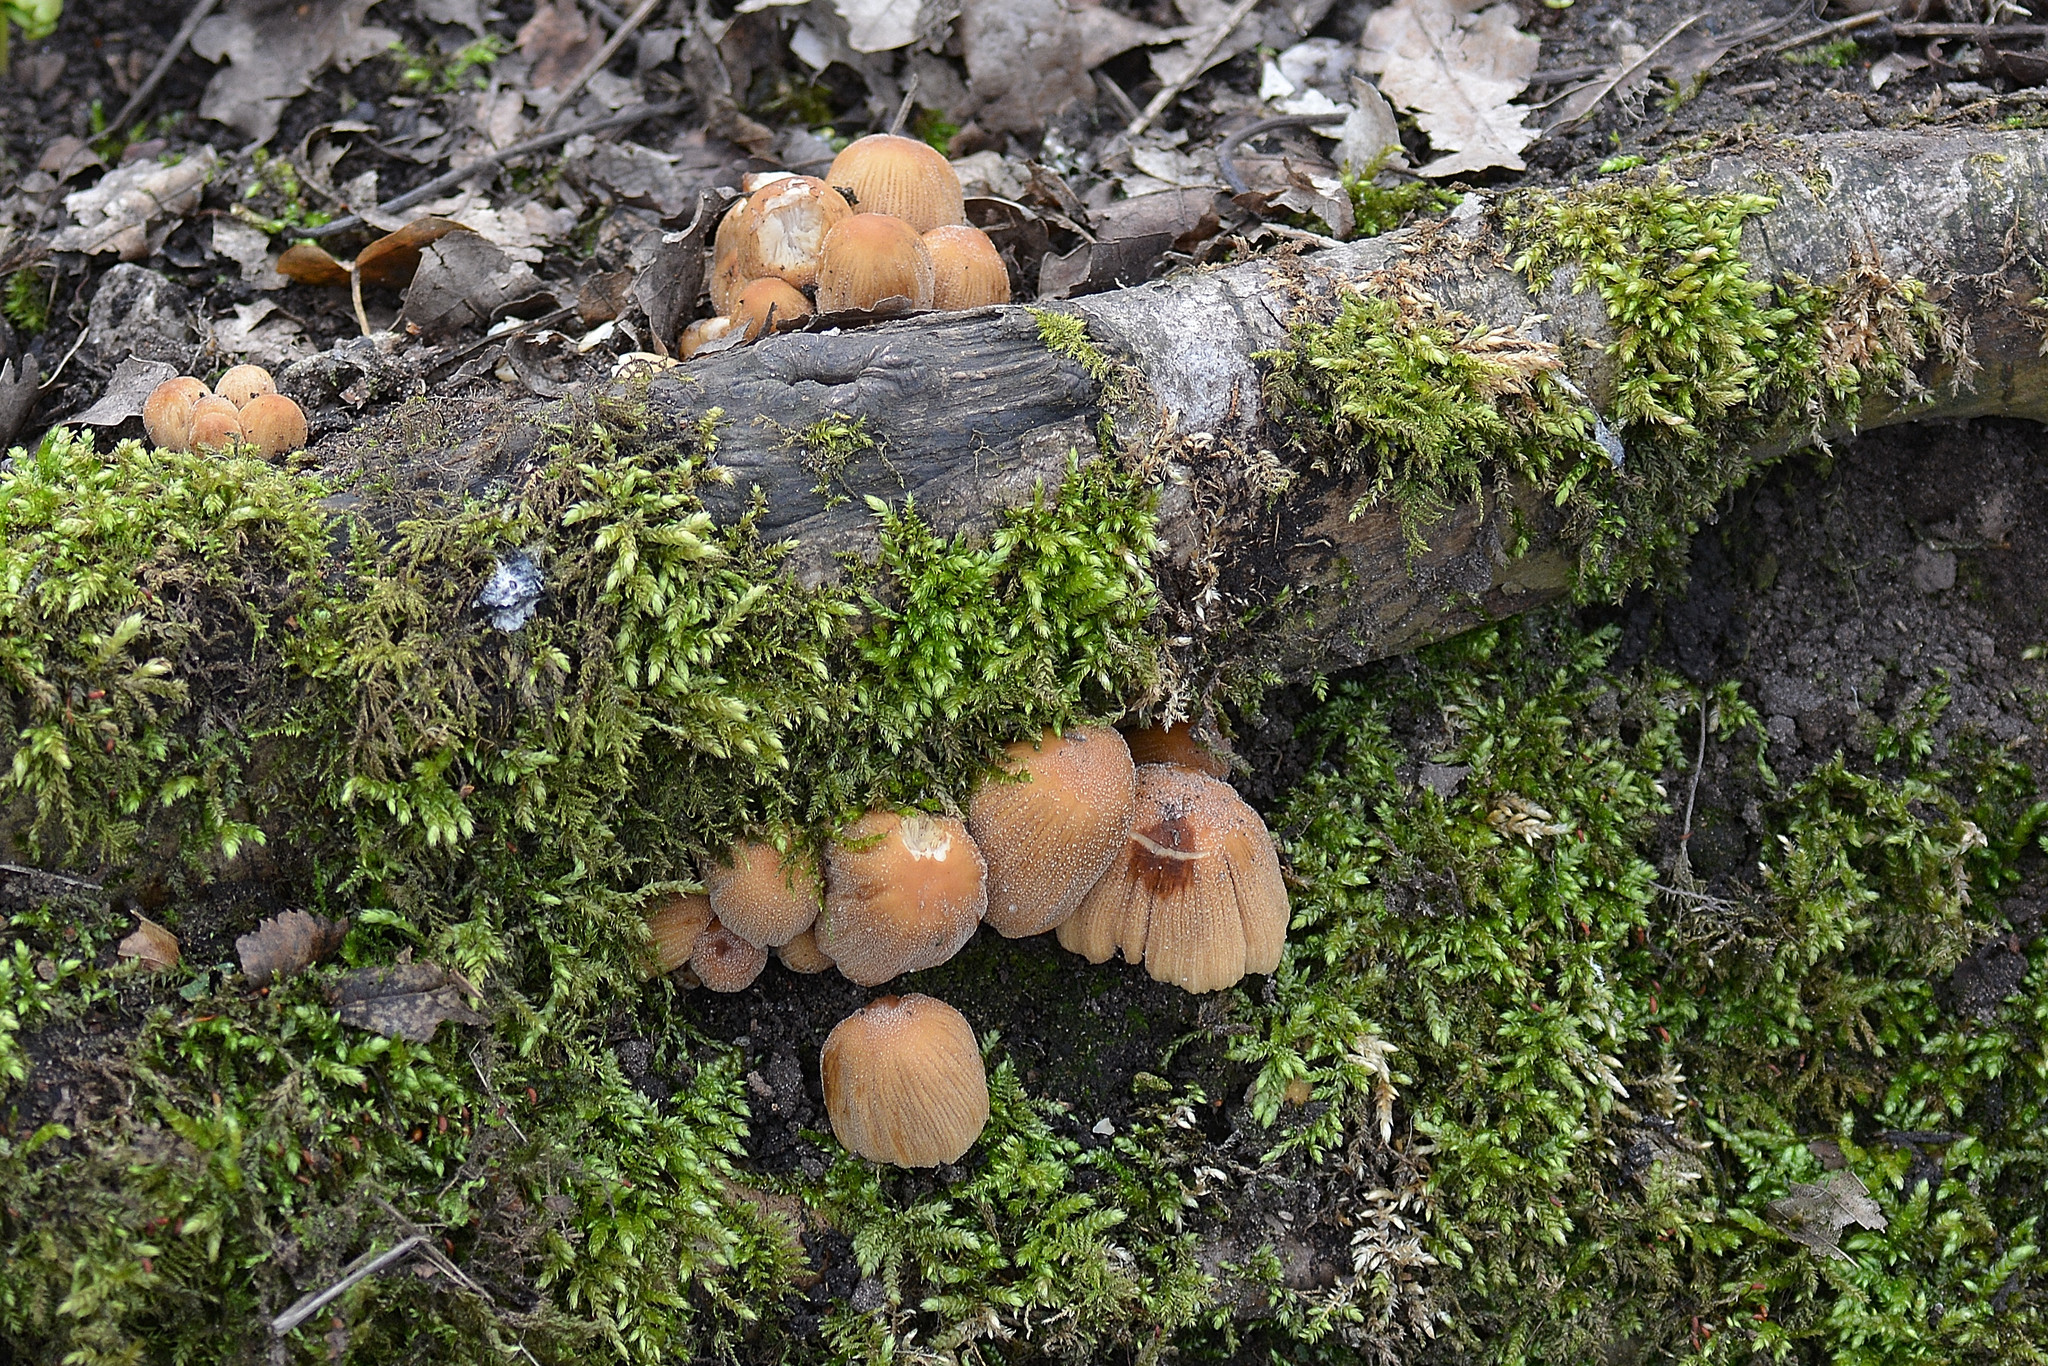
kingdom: Fungi
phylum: Basidiomycota
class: Agaricomycetes
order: Agaricales
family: Psathyrellaceae
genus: Coprinellus
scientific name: Coprinellus micaceus
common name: Glistening ink-cap
